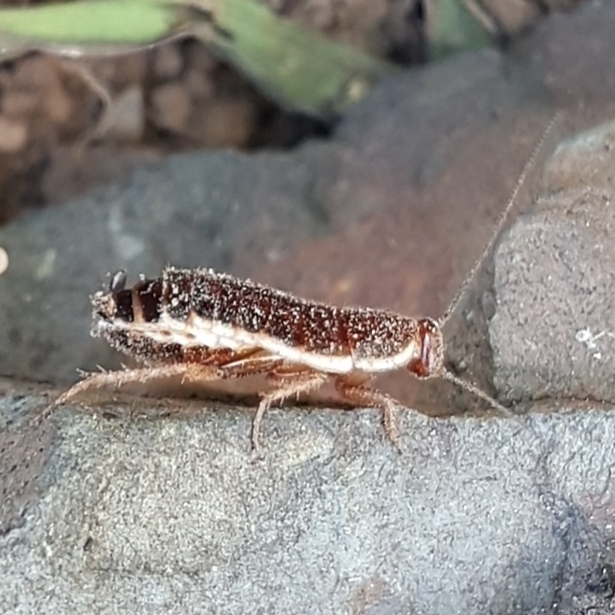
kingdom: Animalia
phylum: Arthropoda
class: Insecta
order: Blattodea
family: Ectobiidae
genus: Loboptera
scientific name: Loboptera decipiens
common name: Lobe-winged cockroach
